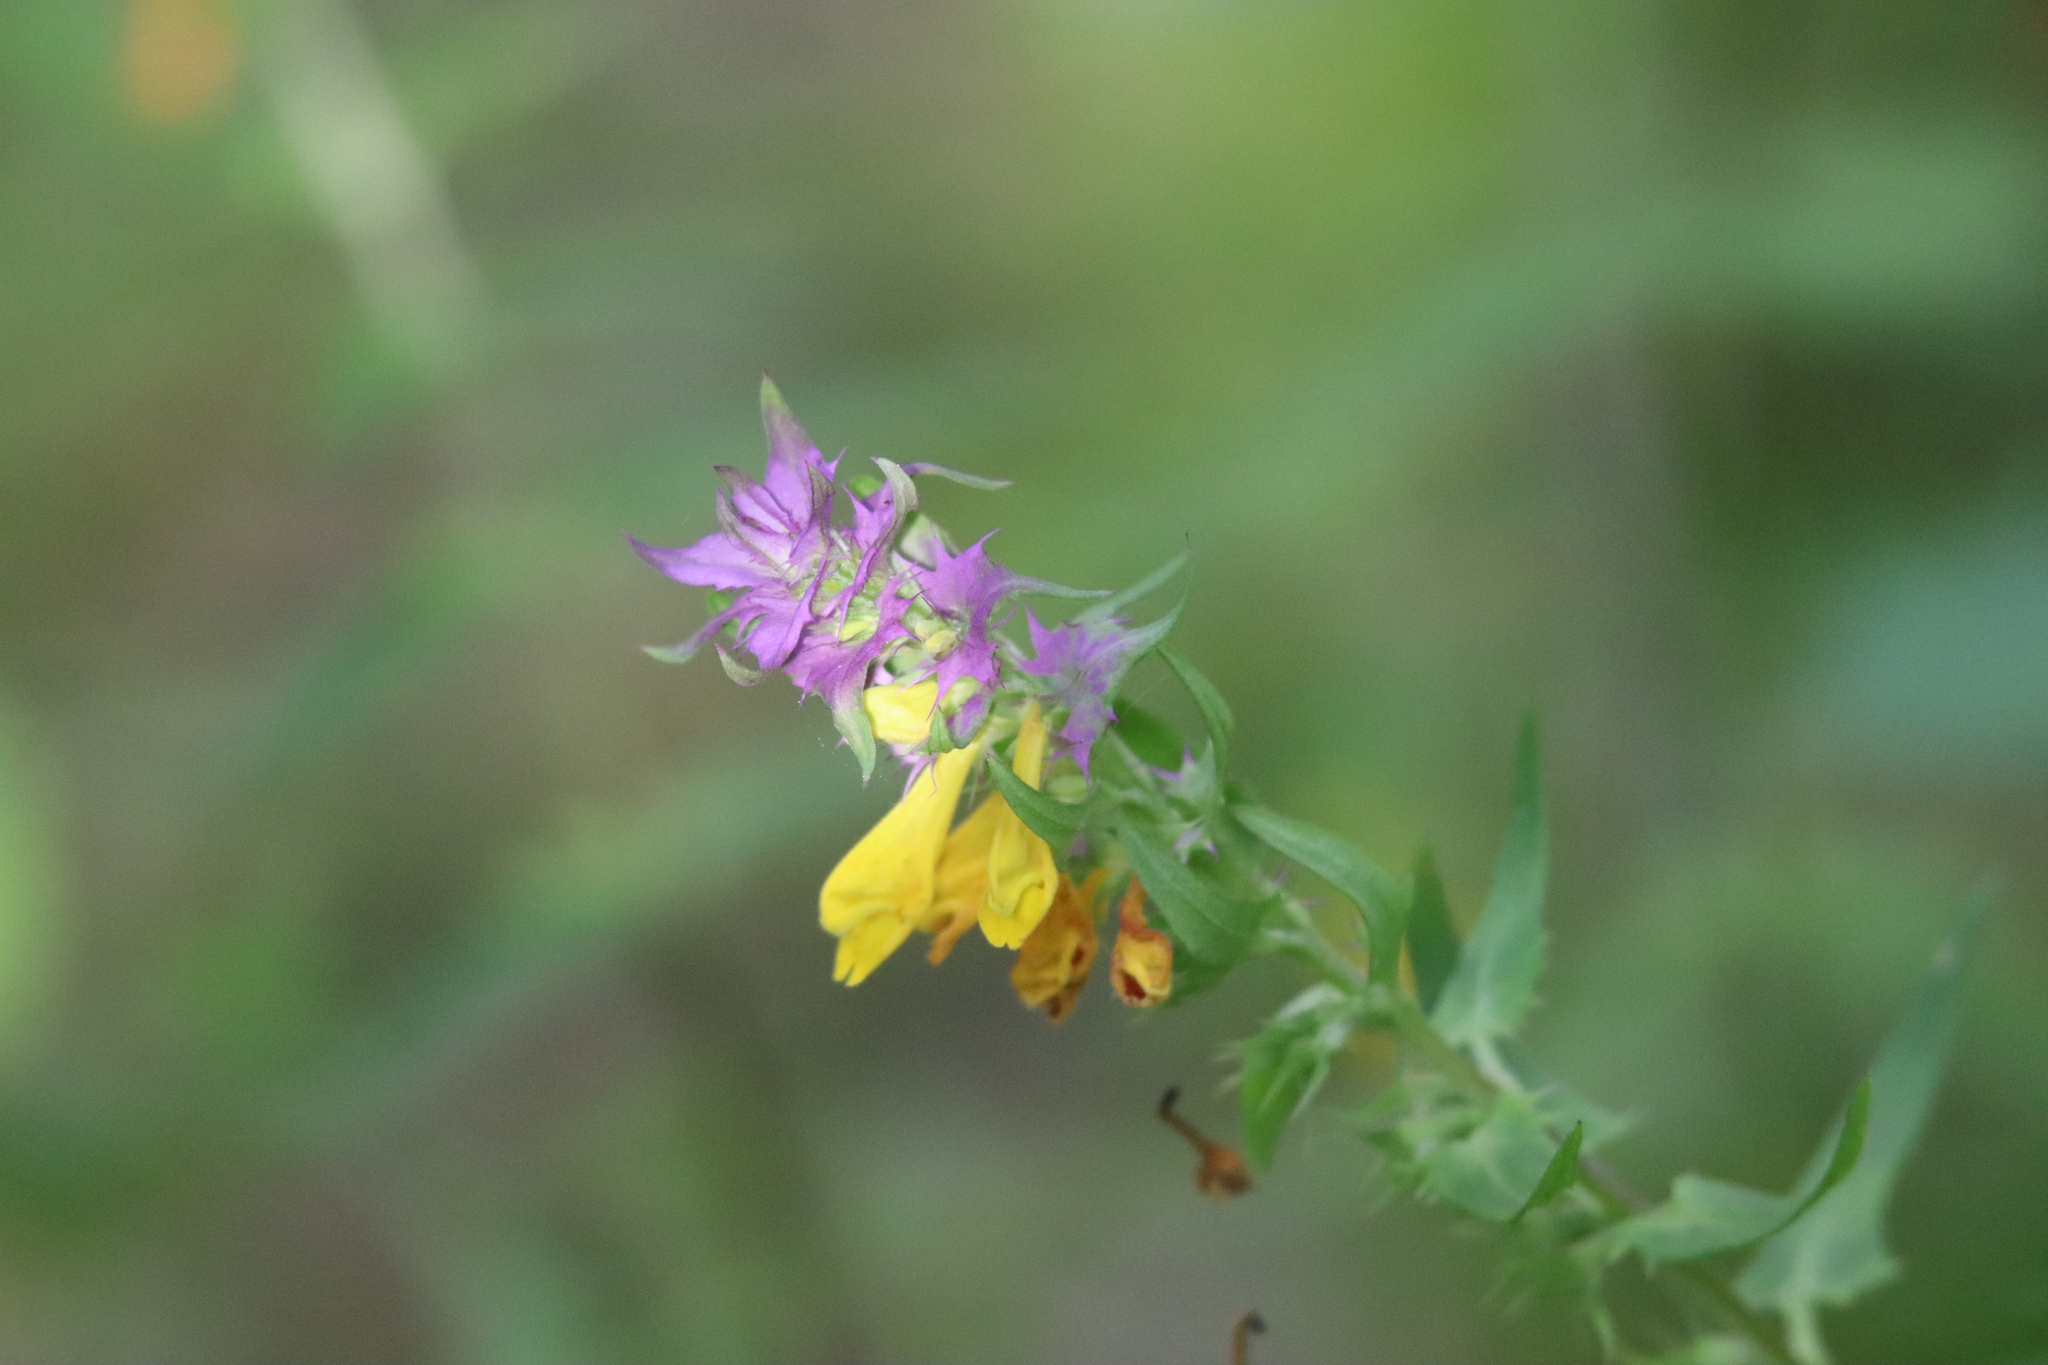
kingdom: Plantae
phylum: Tracheophyta
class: Magnoliopsida
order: Lamiales
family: Orobanchaceae
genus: Melampyrum
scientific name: Melampyrum catalaunicum
